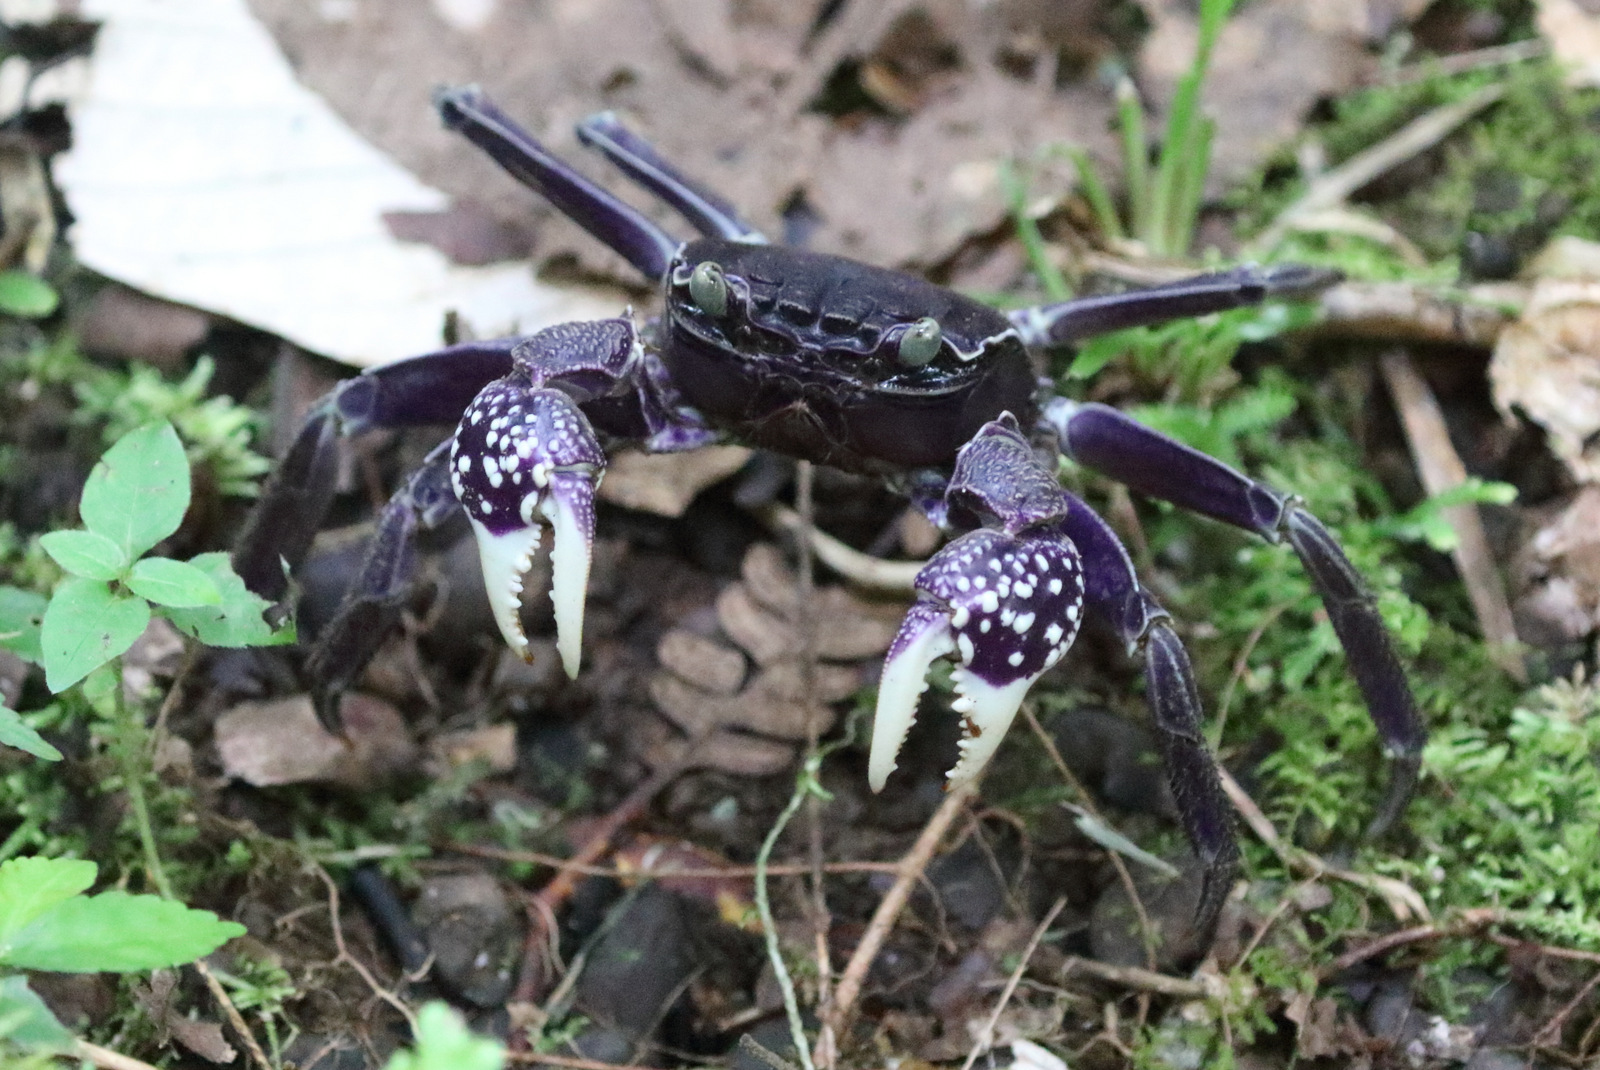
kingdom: Animalia
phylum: Arthropoda
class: Malacostraca
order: Decapoda
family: Sesarmidae
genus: Sesarmops
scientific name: Sesarmops atrorubens
